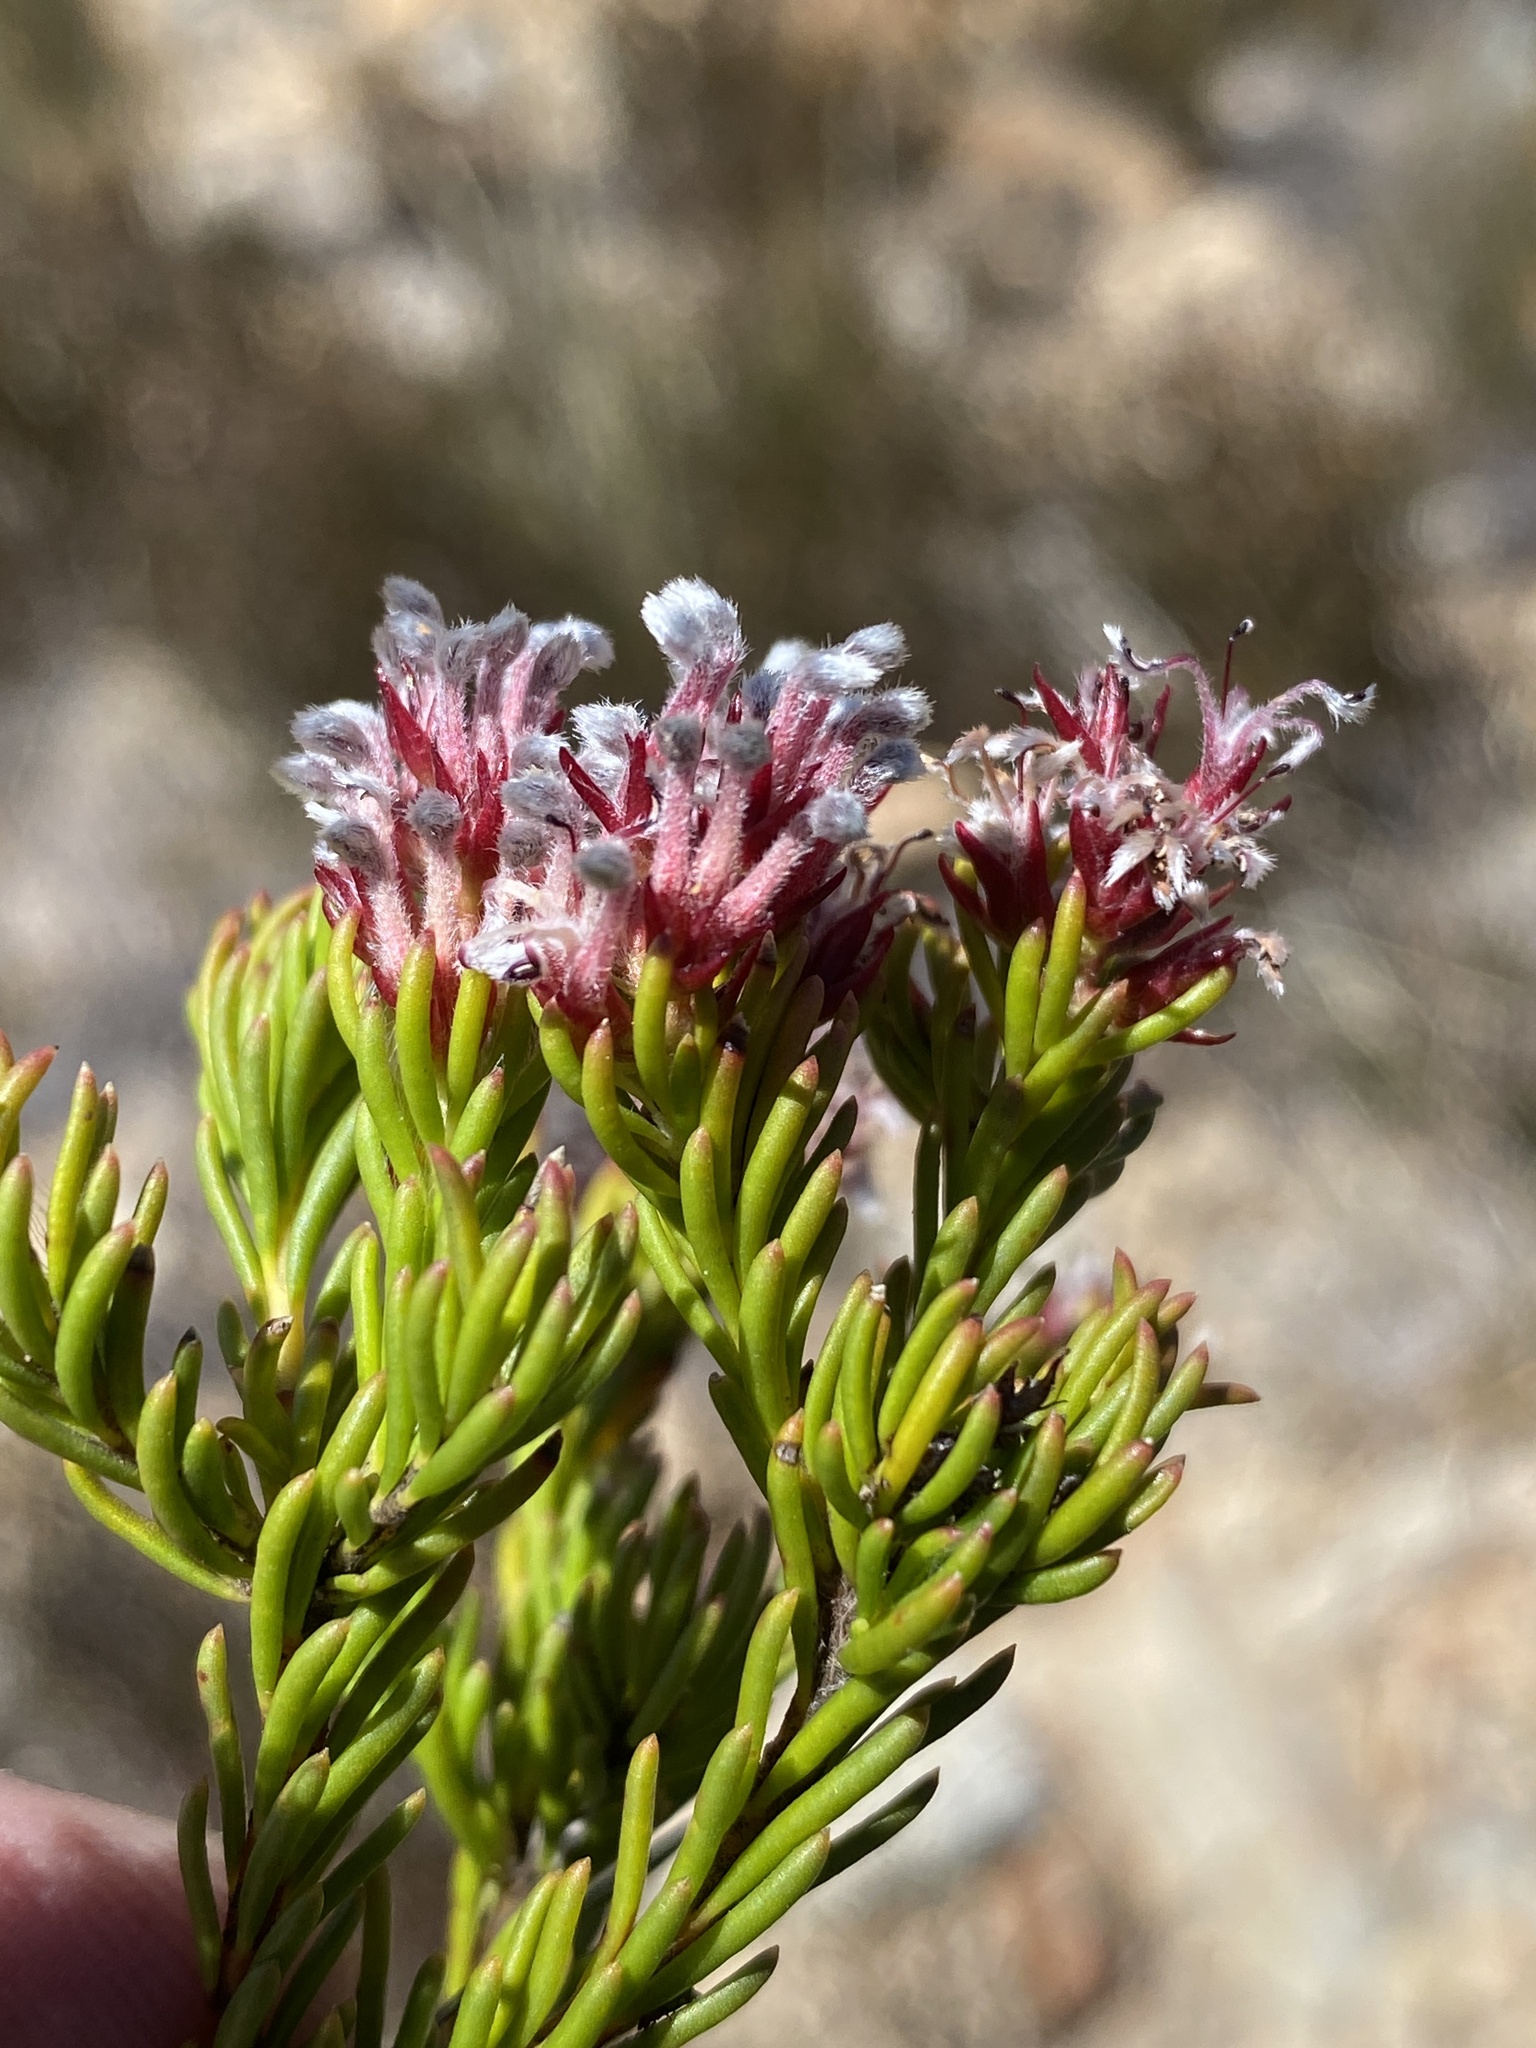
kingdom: Plantae
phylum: Tracheophyta
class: Magnoliopsida
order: Proteales
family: Proteaceae
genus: Spatalla
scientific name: Spatalla confusa
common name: Long-tube spoon
